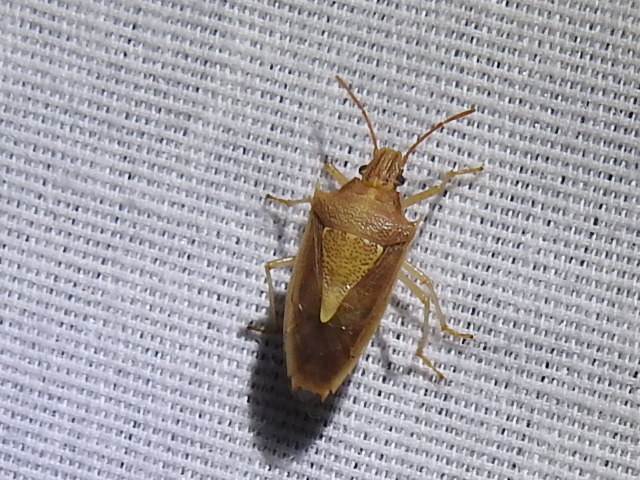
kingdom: Animalia
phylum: Arthropoda
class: Insecta
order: Hemiptera
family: Pentatomidae
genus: Oebalus
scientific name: Oebalus pugnax
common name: Rice stink bug
